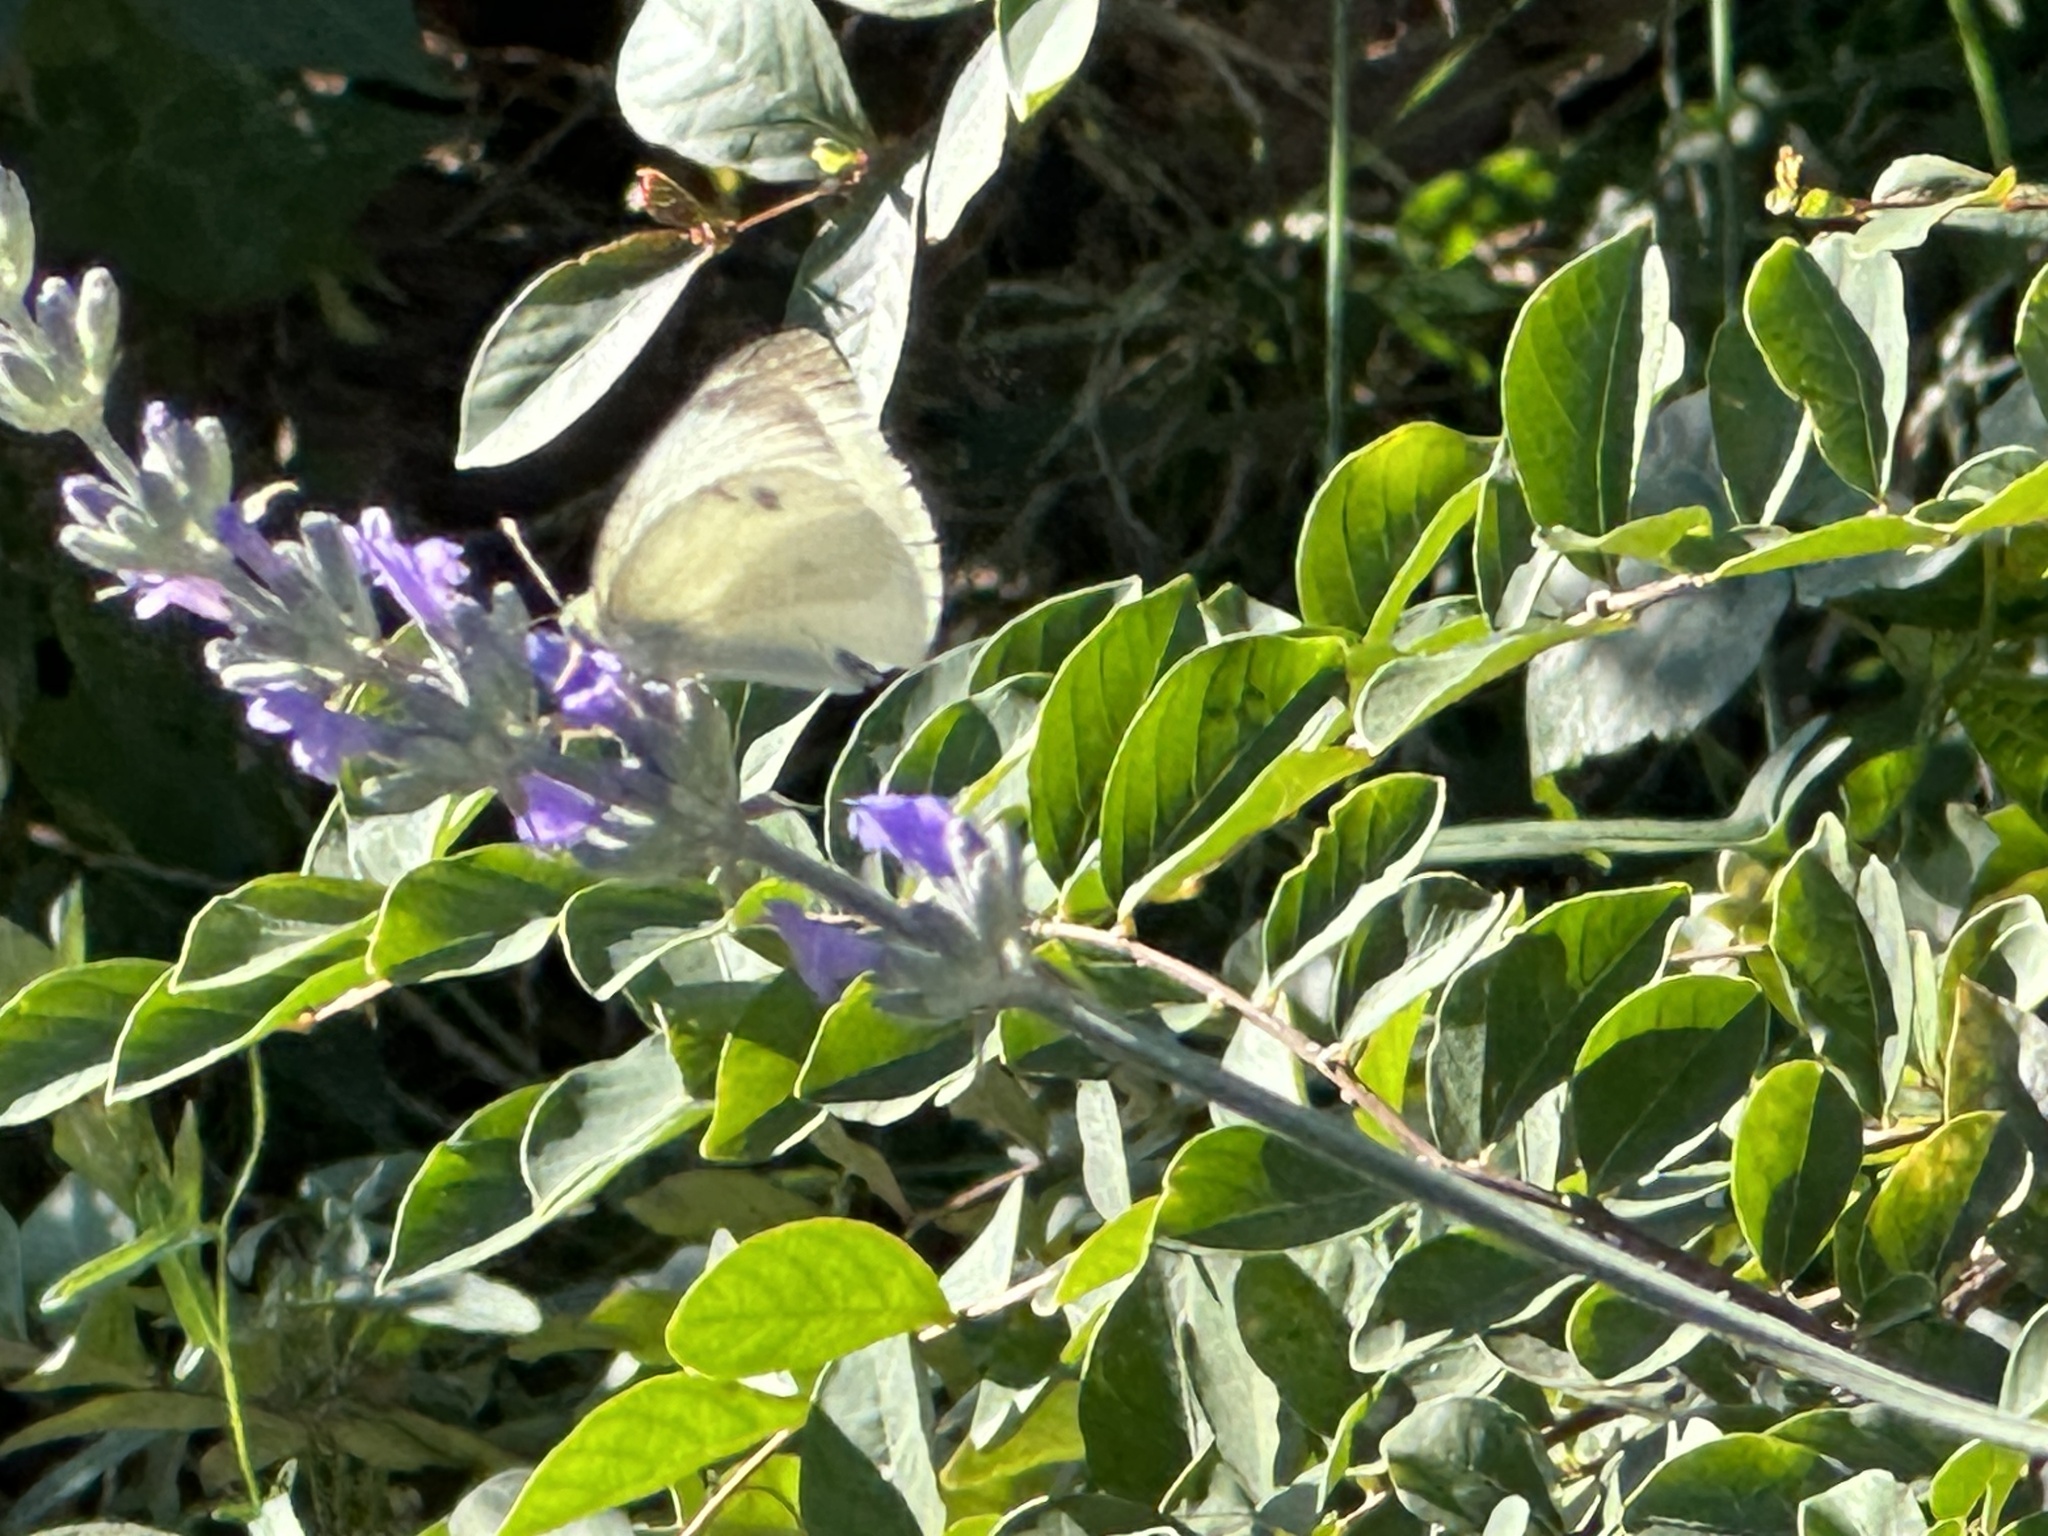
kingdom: Animalia
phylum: Arthropoda
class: Insecta
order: Lepidoptera
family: Pieridae
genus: Pieris
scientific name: Pieris rapae
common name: Small white
